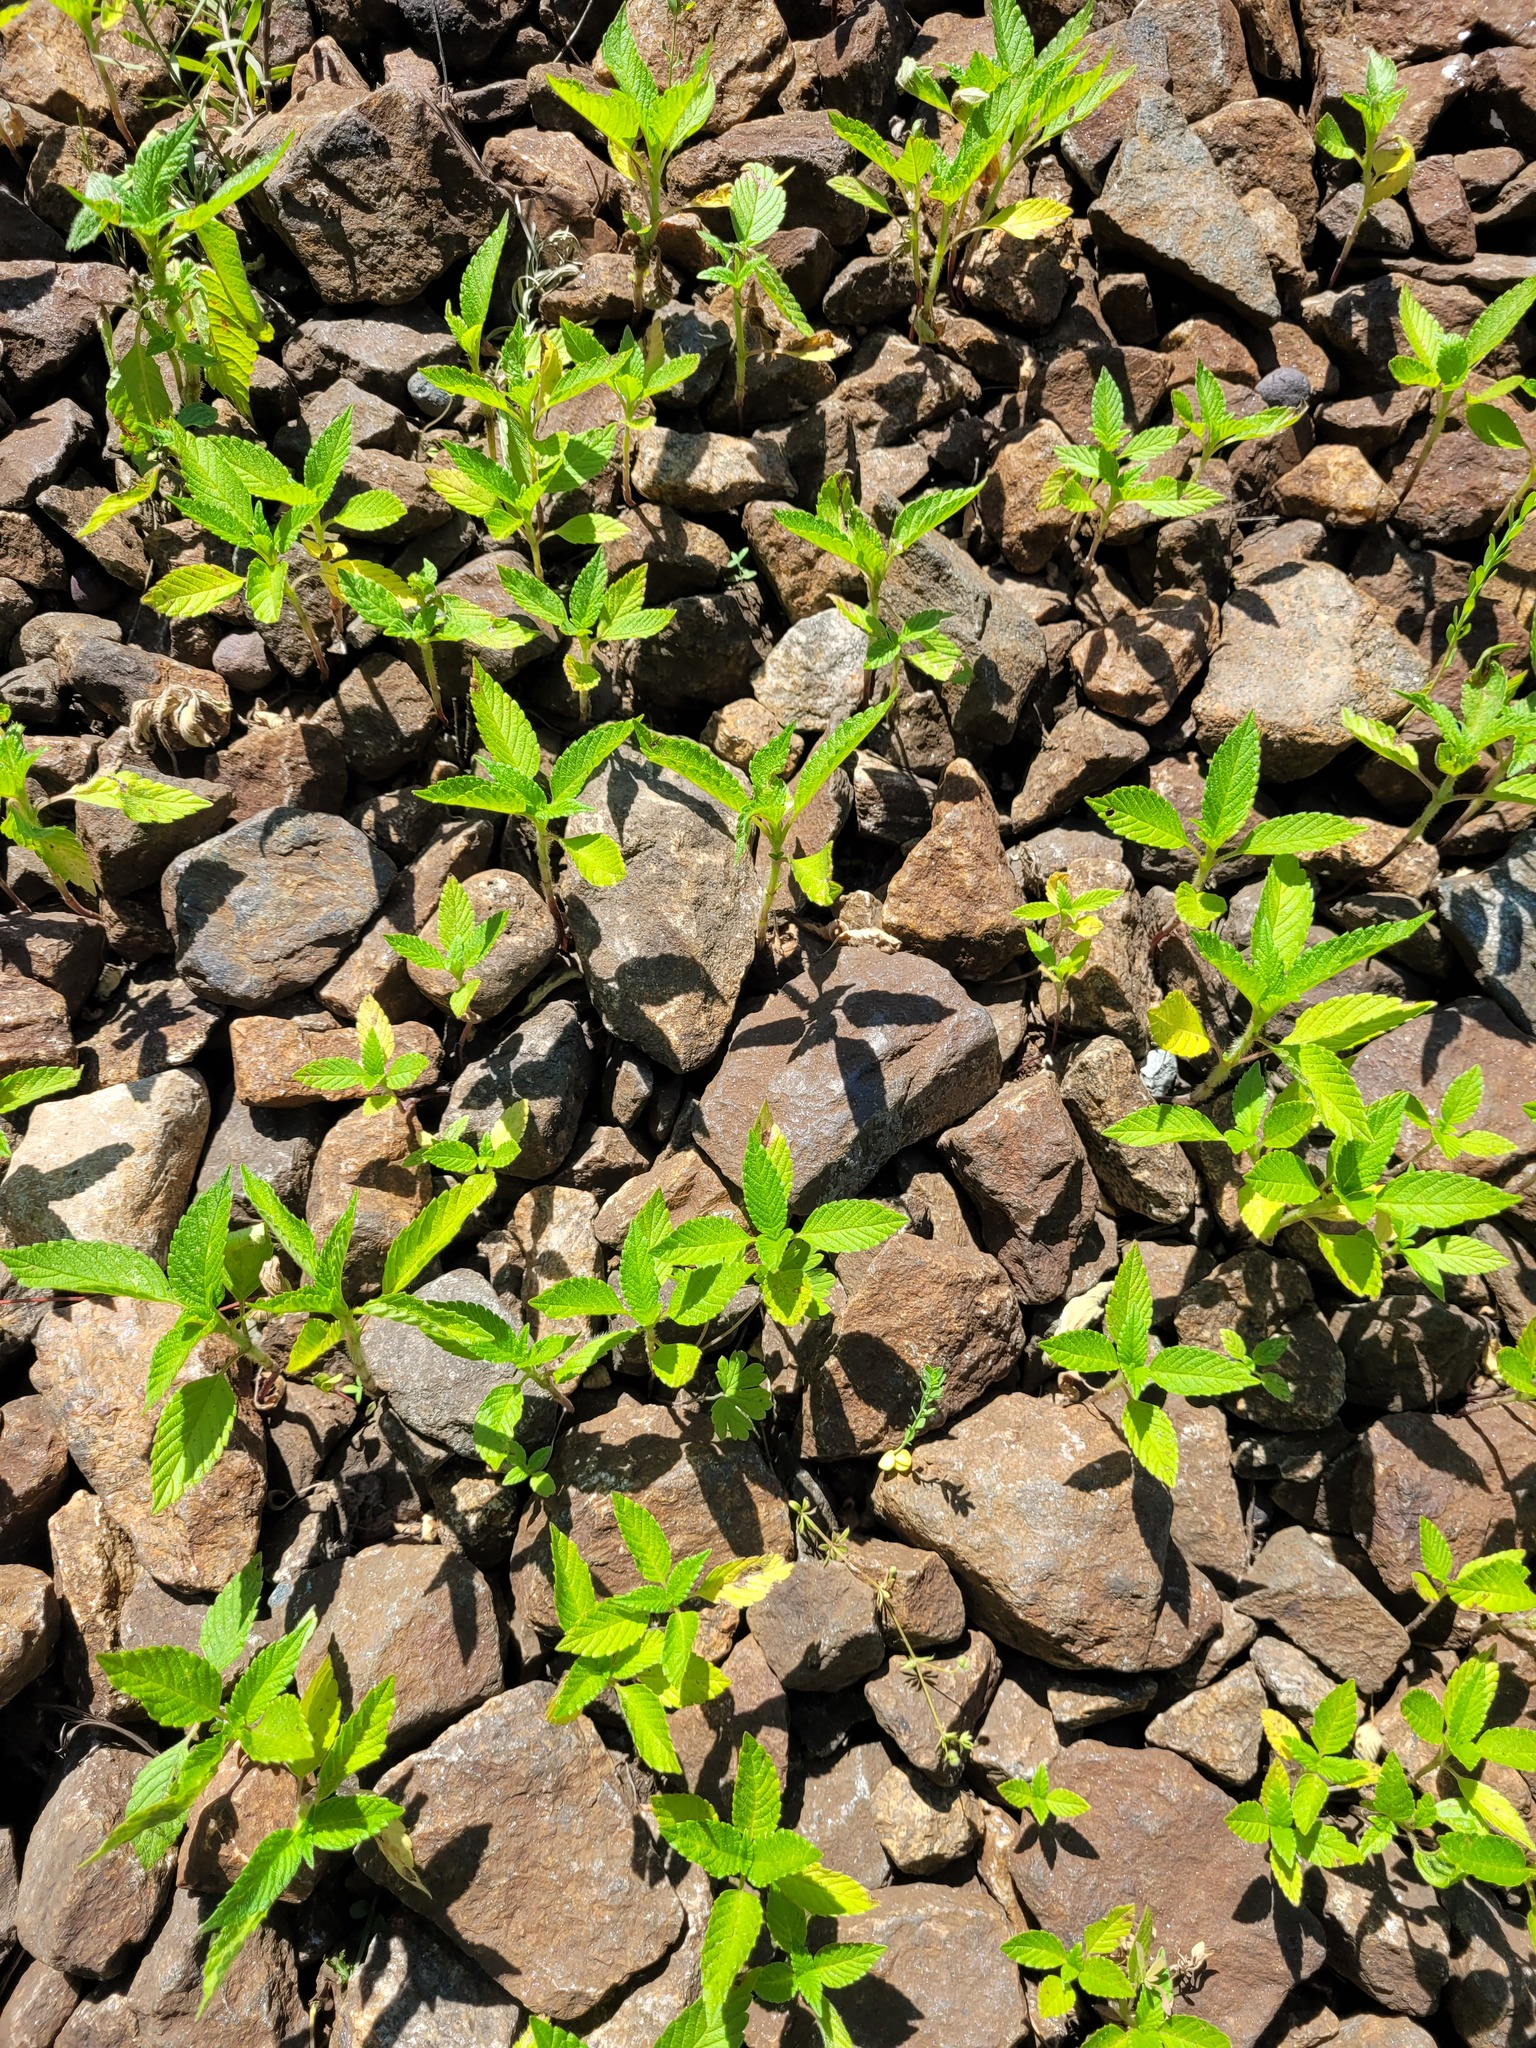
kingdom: Plantae
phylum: Tracheophyta
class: Magnoliopsida
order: Lamiales
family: Lamiaceae
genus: Galeopsis
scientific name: Galeopsis
